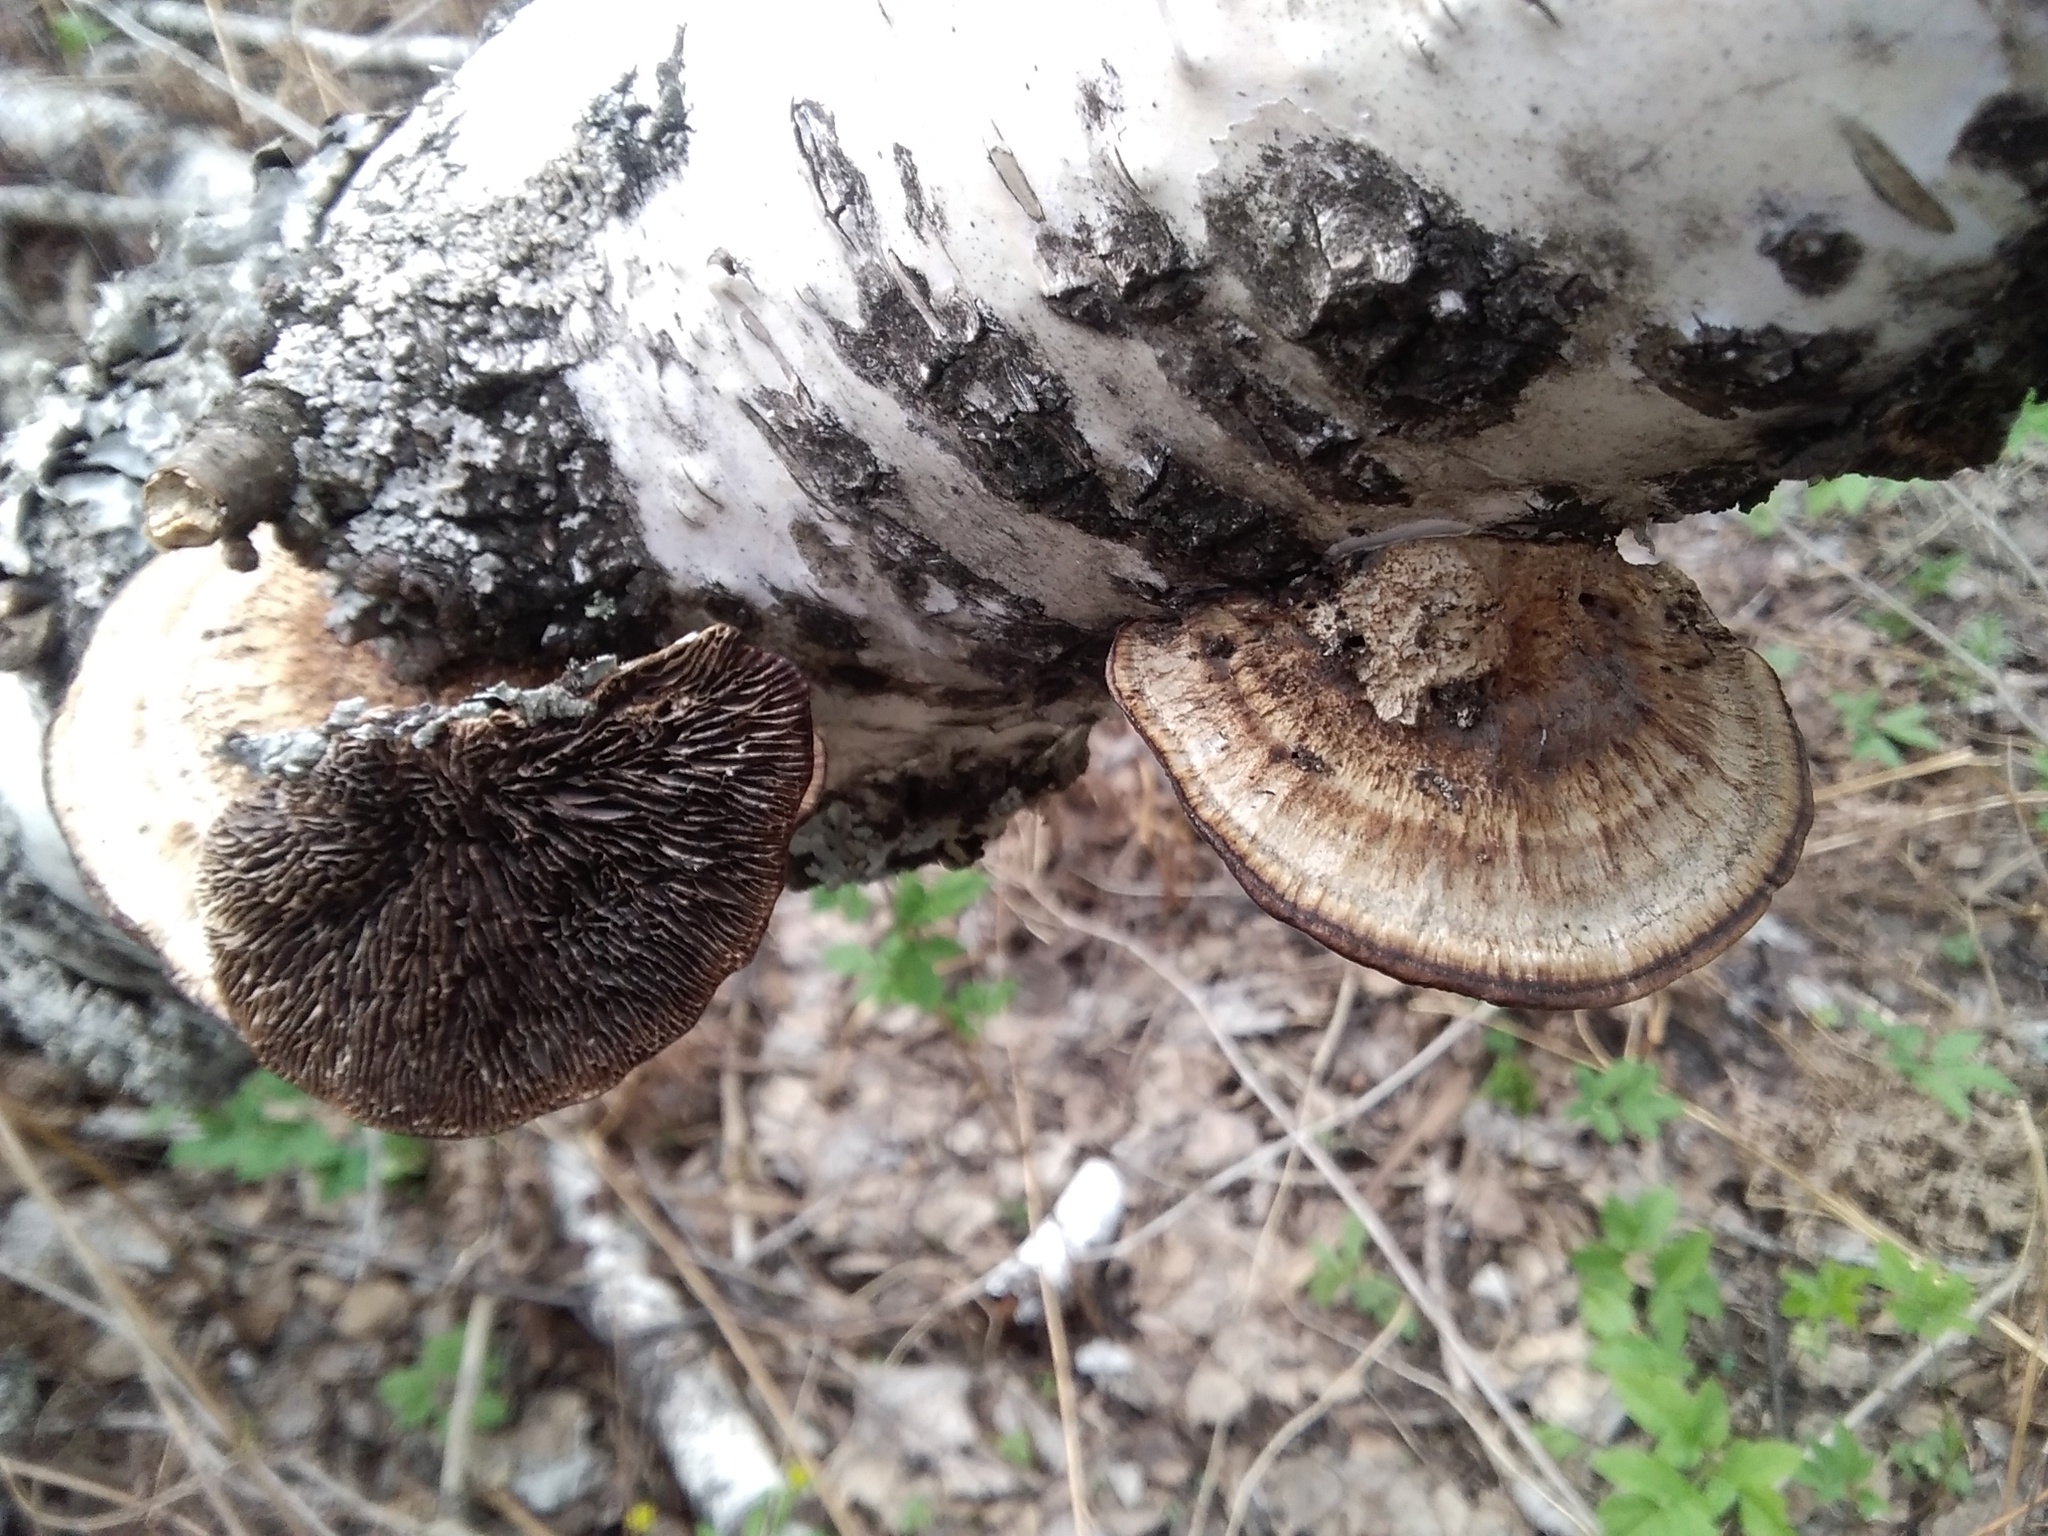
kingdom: Fungi
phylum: Basidiomycota
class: Agaricomycetes
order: Polyporales
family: Polyporaceae
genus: Daedaleopsis
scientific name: Daedaleopsis confragosa
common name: Blushing bracket
